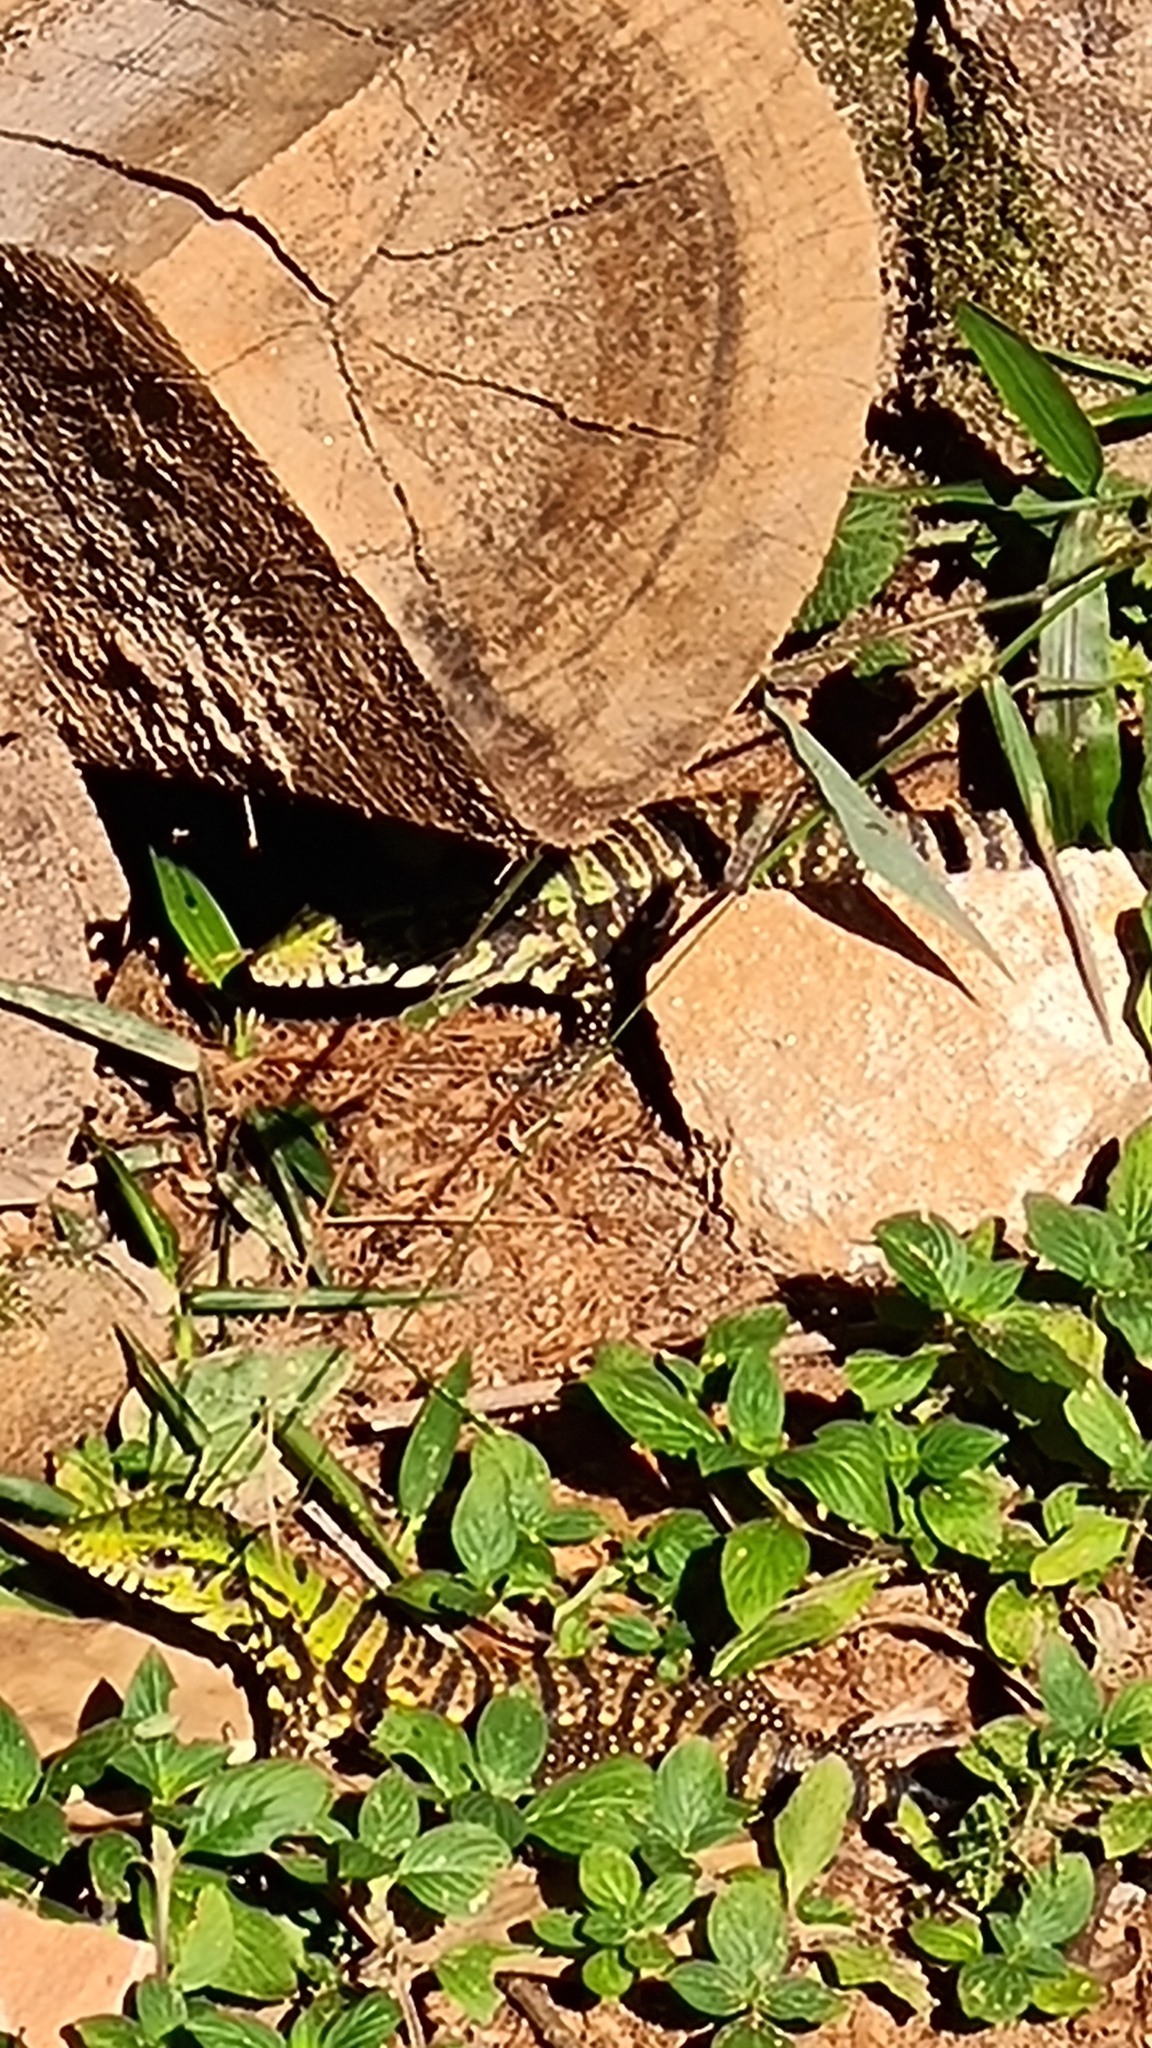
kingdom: Animalia
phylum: Chordata
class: Squamata
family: Teiidae
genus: Salvator
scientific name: Salvator merianae
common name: Argentine black and white tegu
